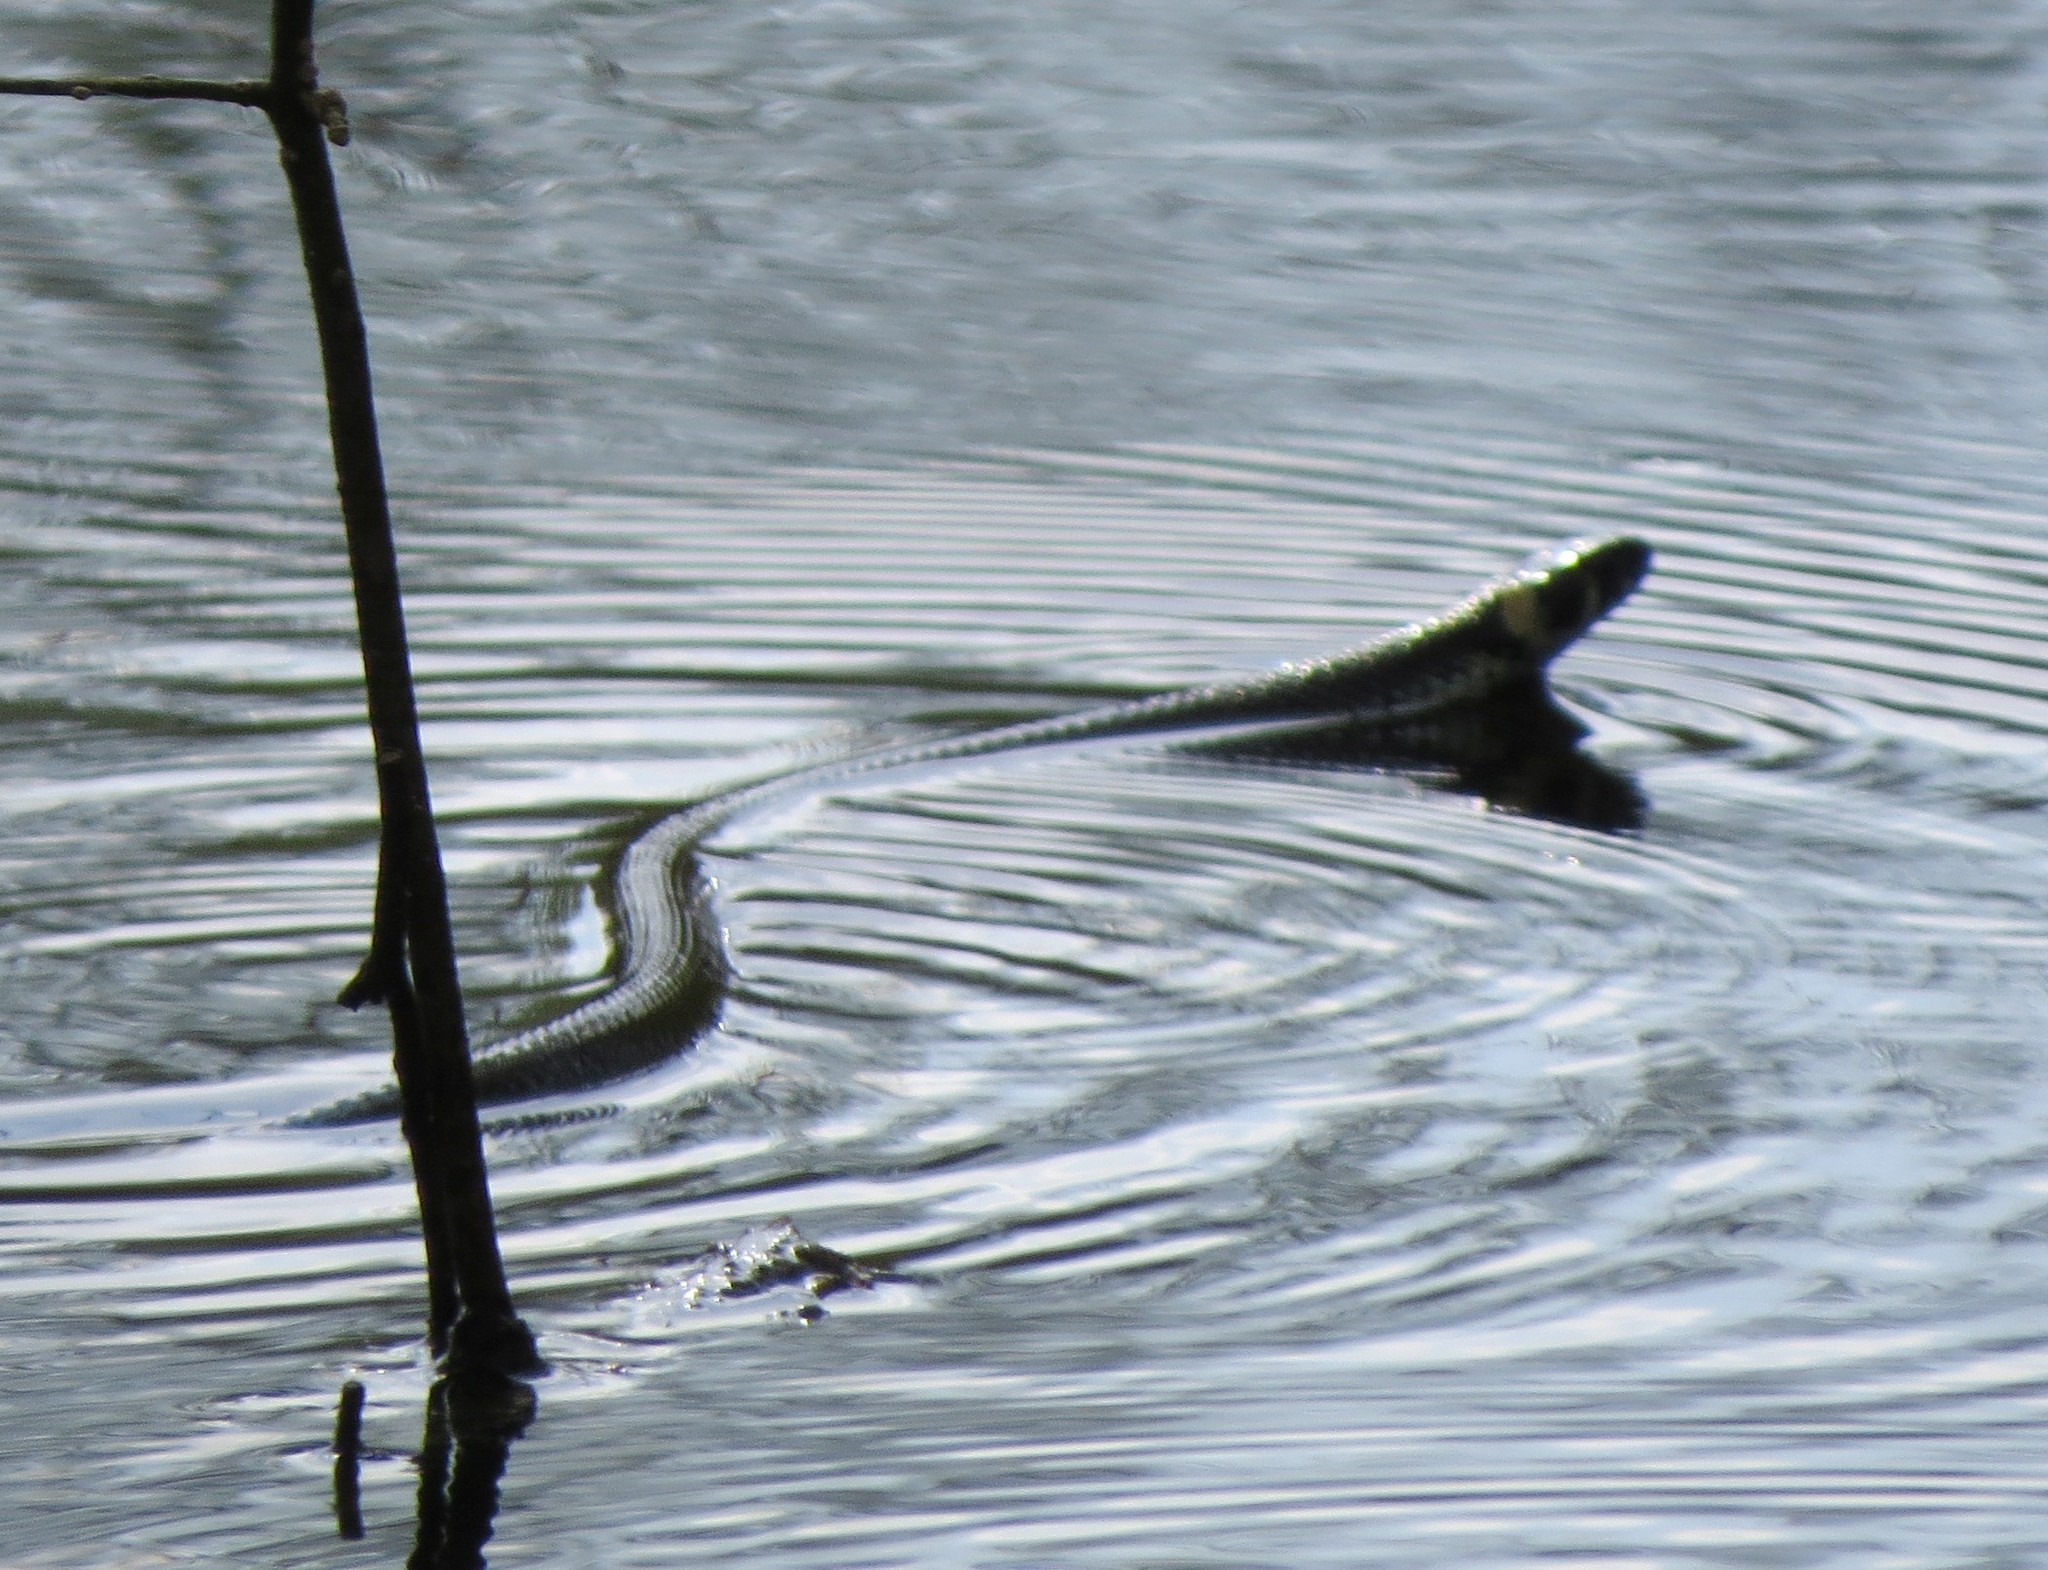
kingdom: Animalia
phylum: Chordata
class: Squamata
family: Colubridae
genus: Natrix
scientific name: Natrix natrix
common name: Grass snake
